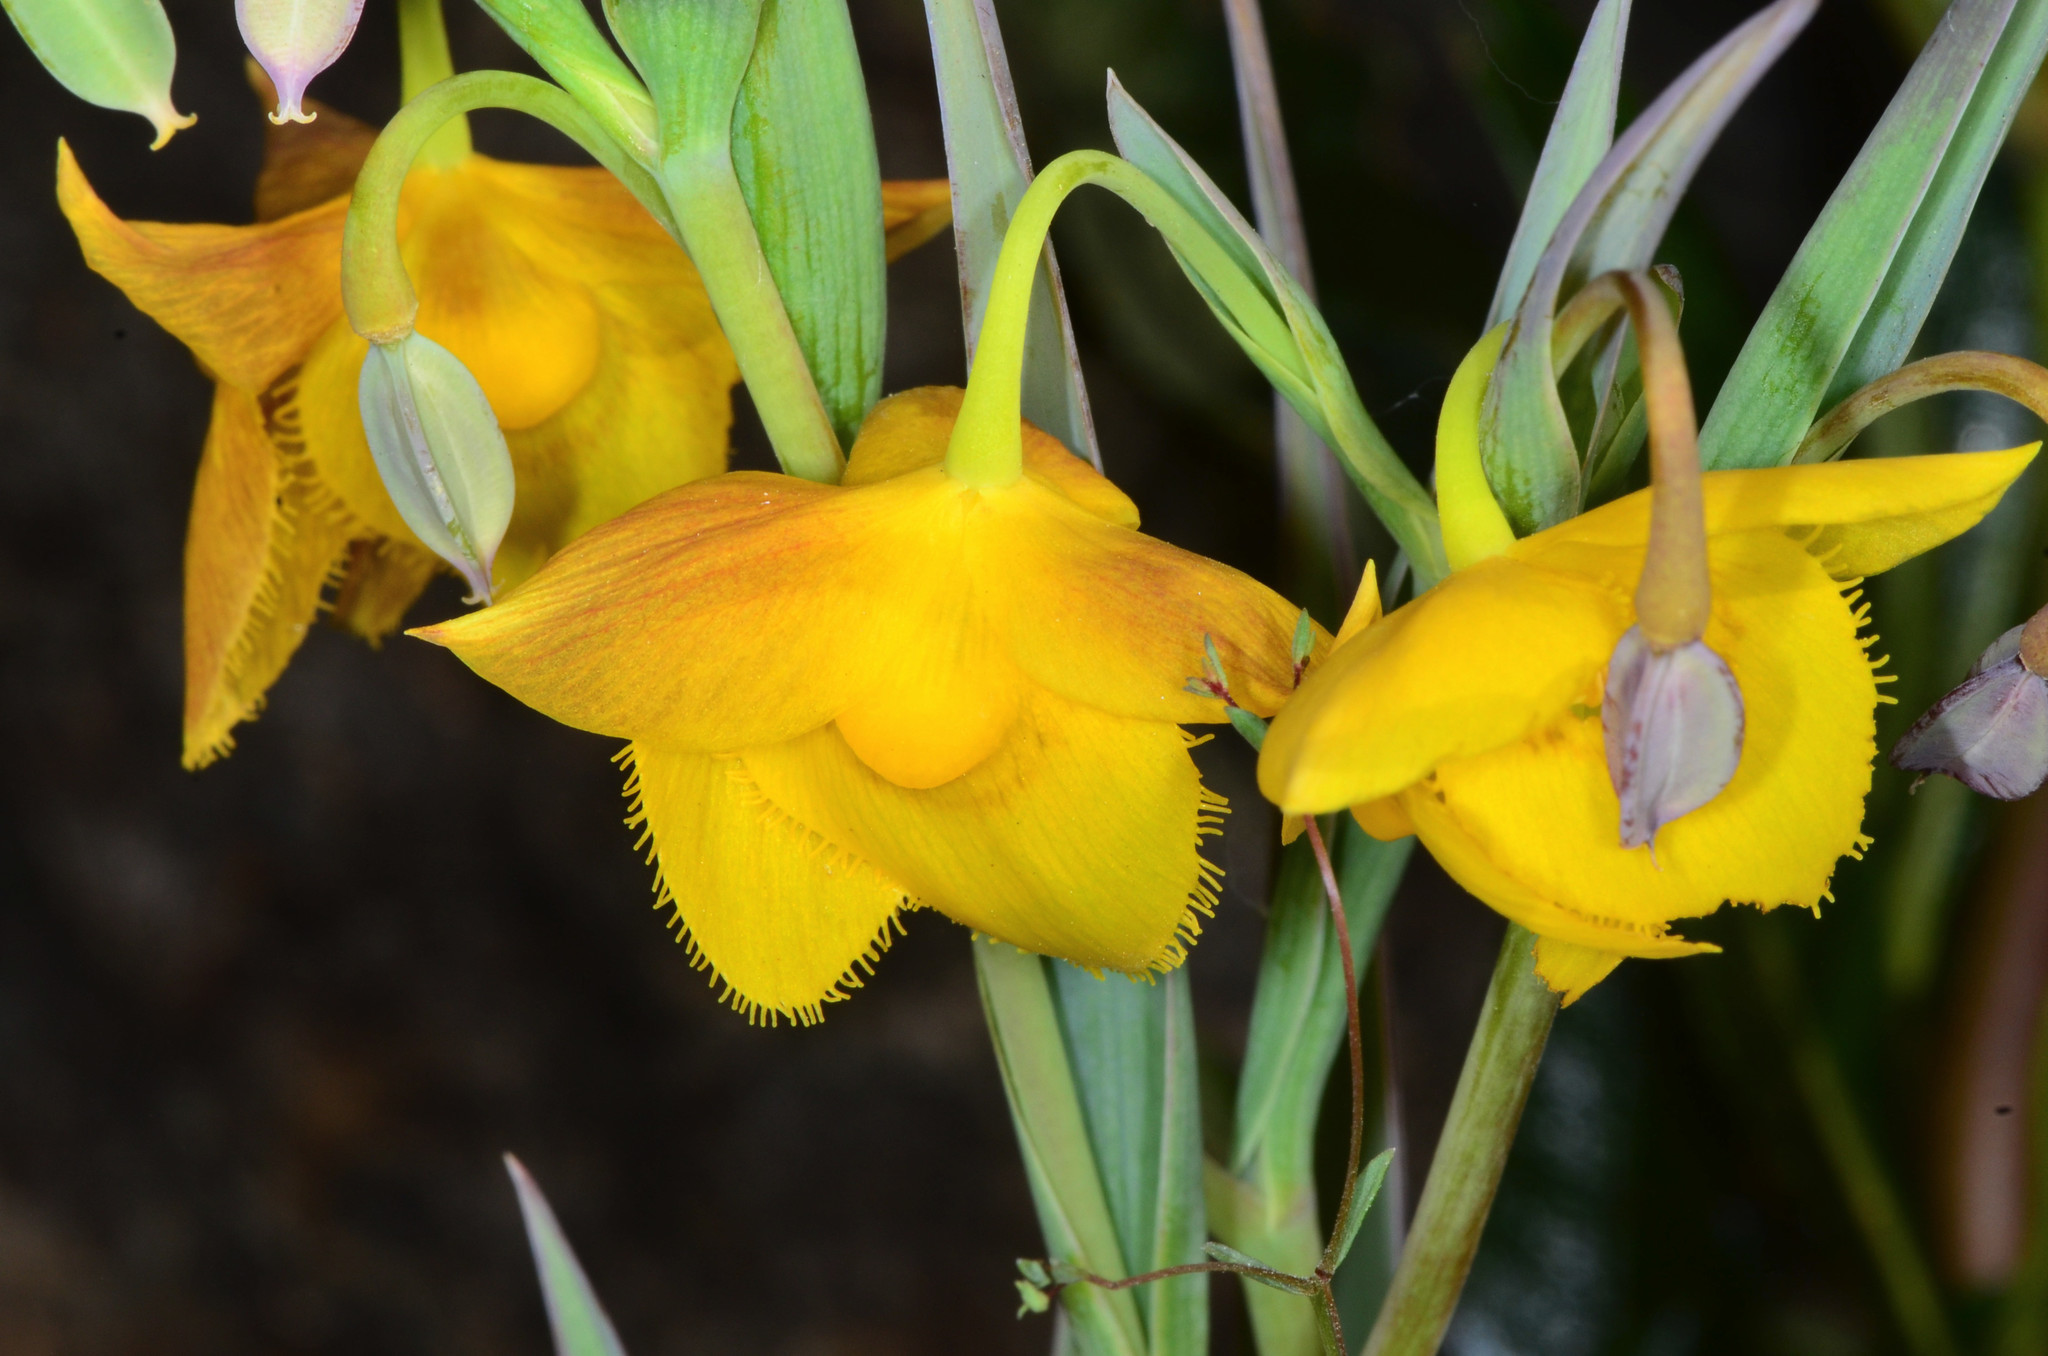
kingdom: Plantae
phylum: Tracheophyta
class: Liliopsida
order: Liliales
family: Liliaceae
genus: Calochortus
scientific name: Calochortus amabilis
